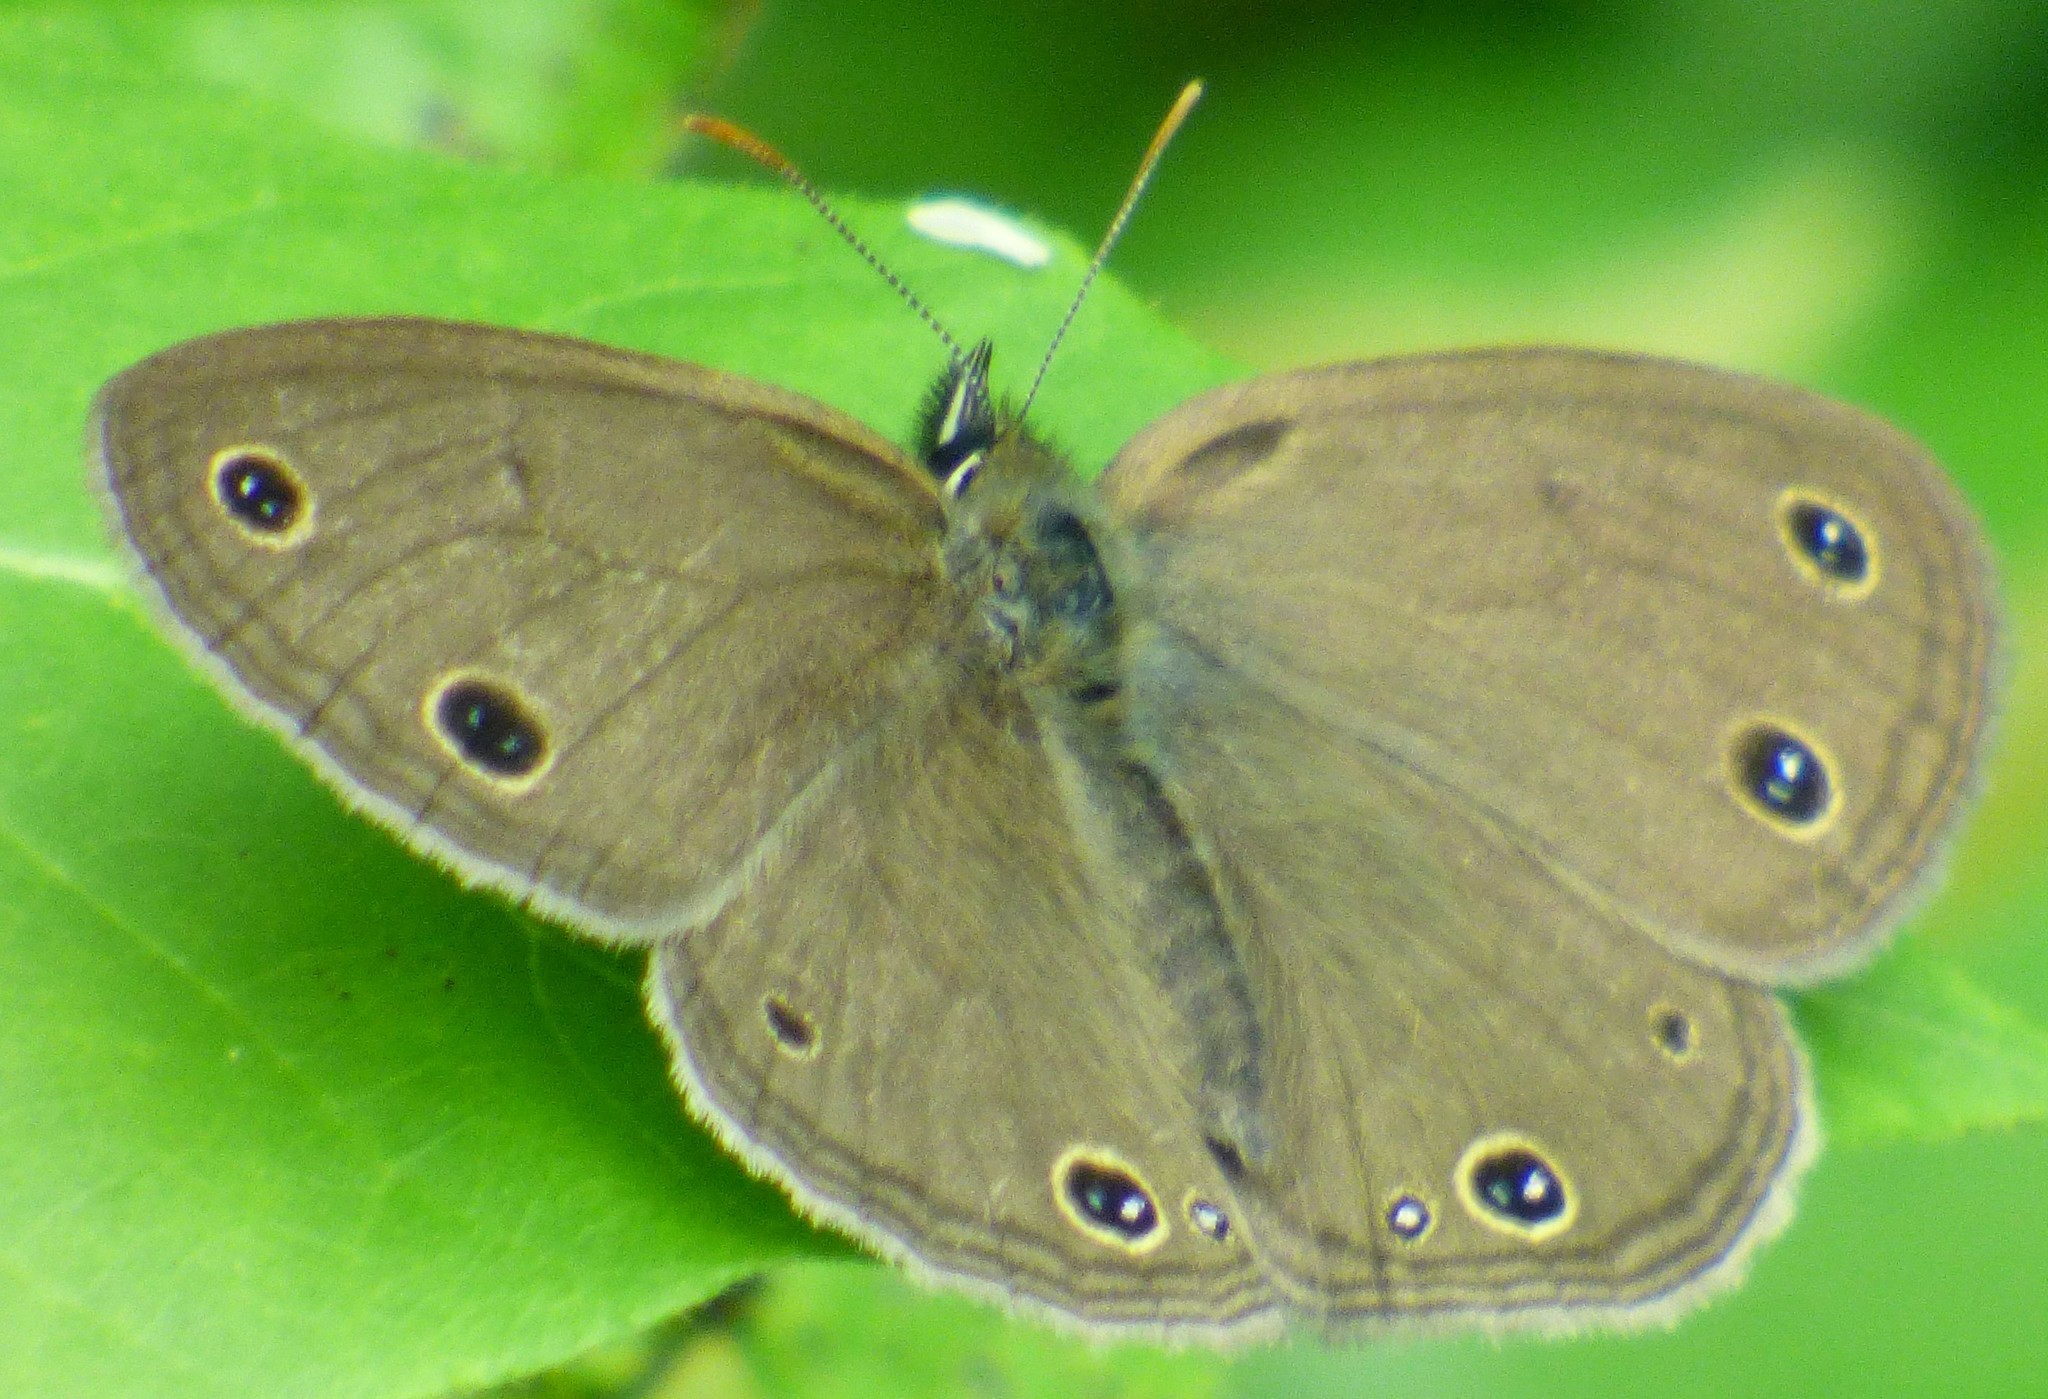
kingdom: Animalia
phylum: Arthropoda
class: Insecta
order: Lepidoptera
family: Nymphalidae
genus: Euptychia
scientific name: Euptychia cymela
